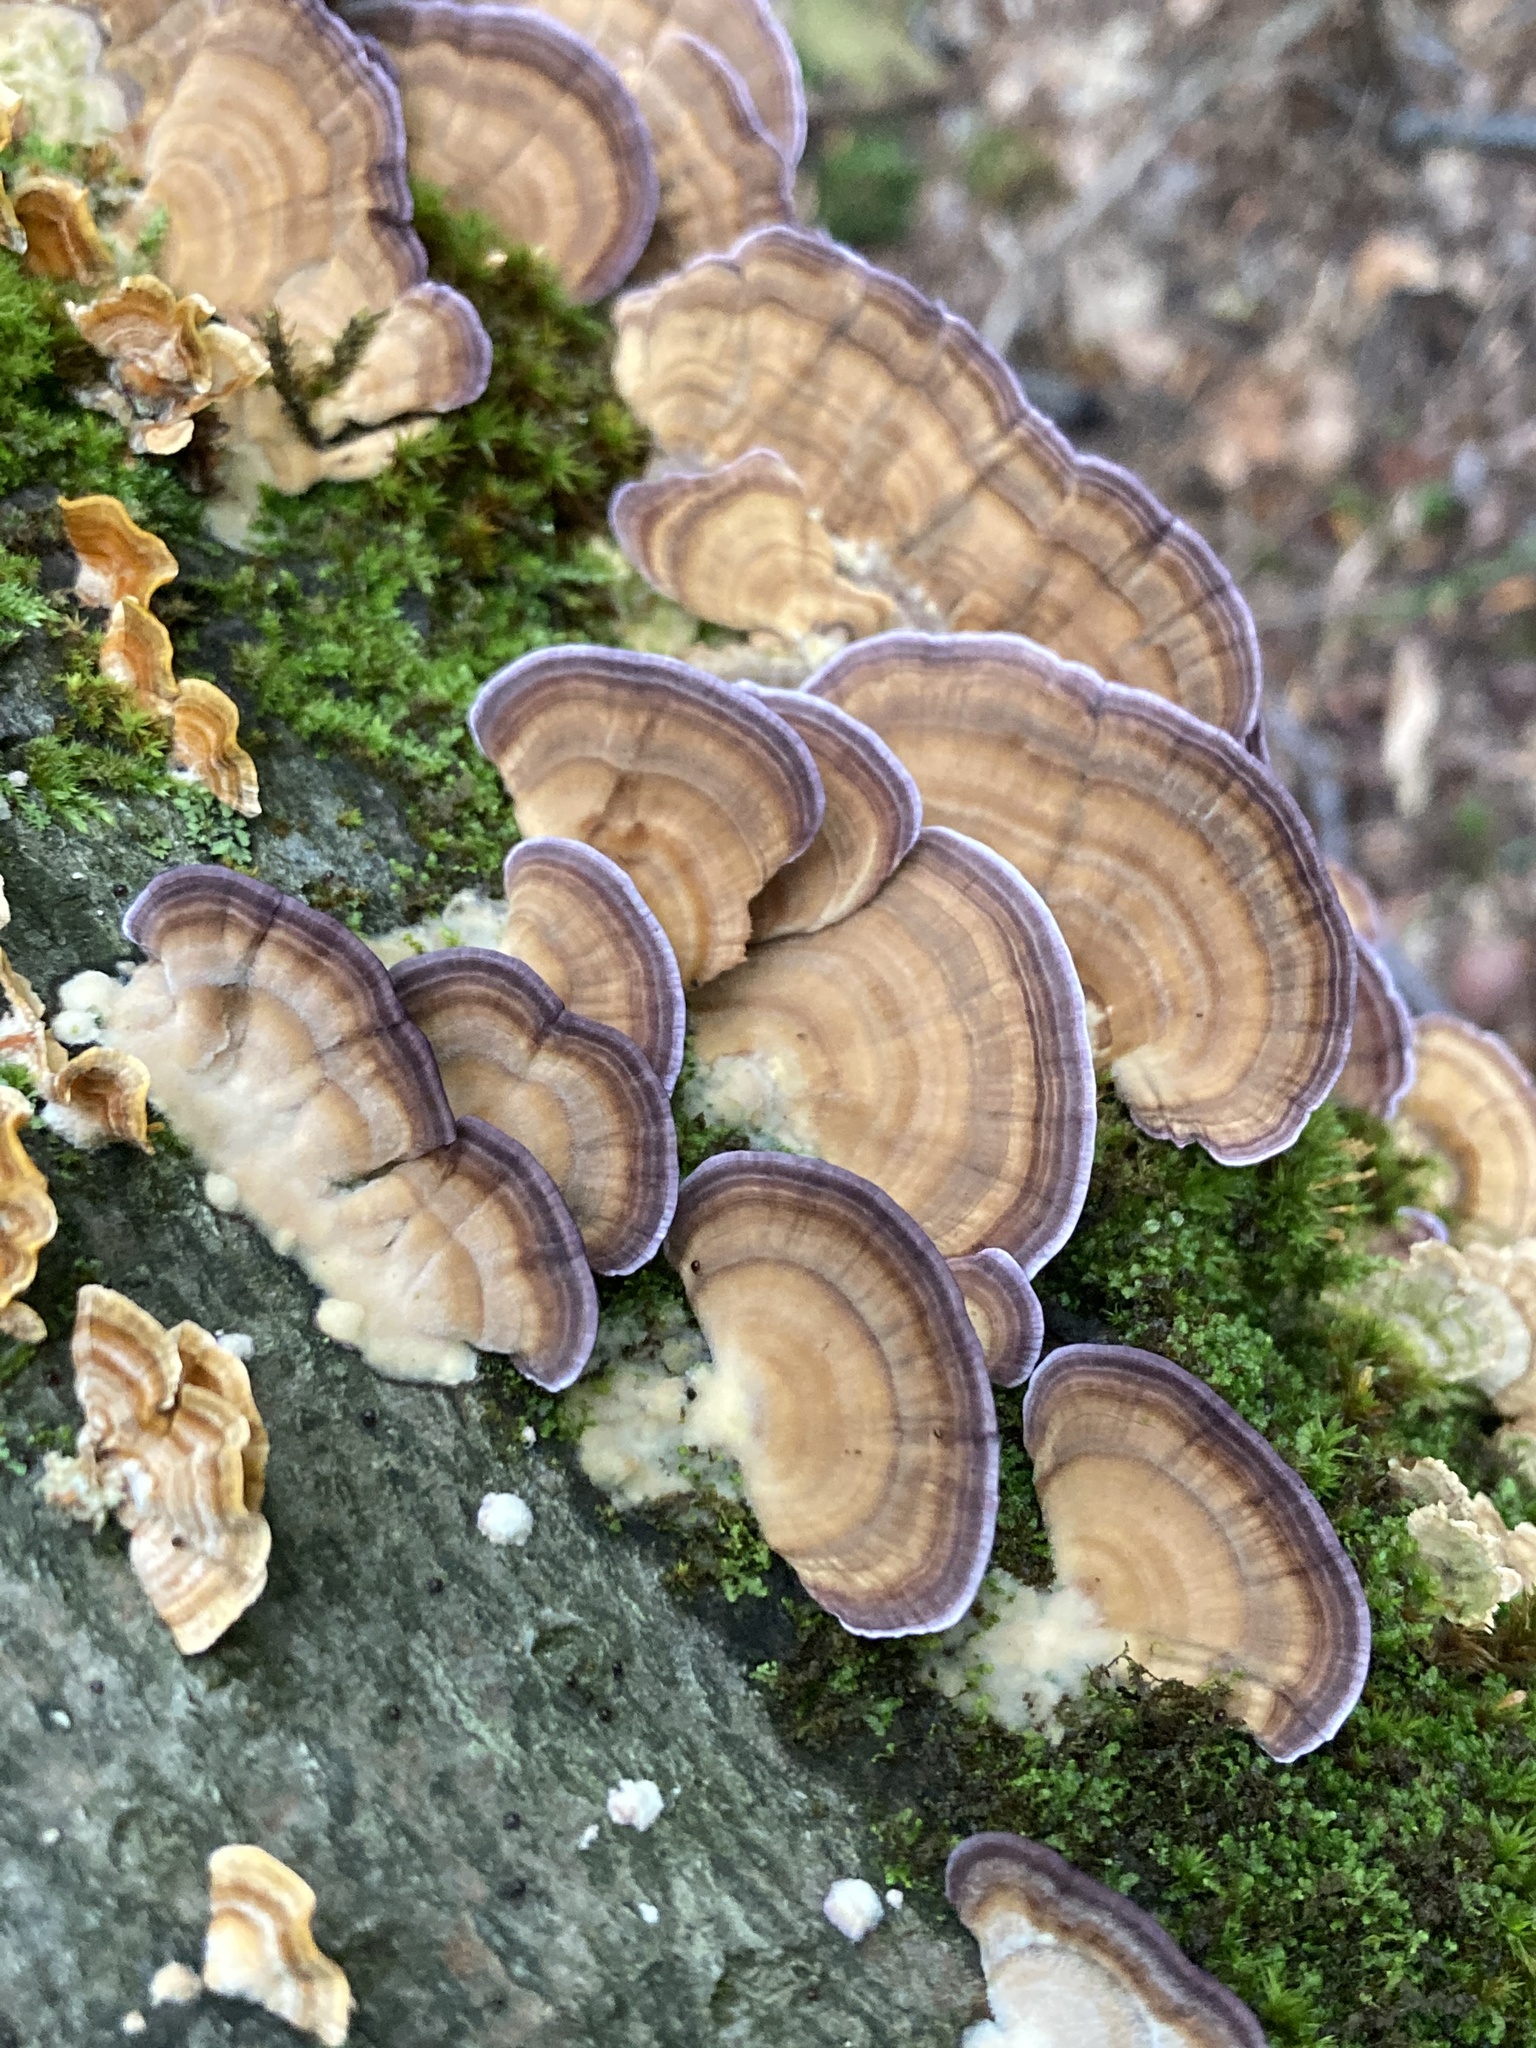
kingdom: Fungi
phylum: Basidiomycota
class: Agaricomycetes
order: Hymenochaetales
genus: Trichaptum
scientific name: Trichaptum biforme
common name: Violet-toothed polypore
